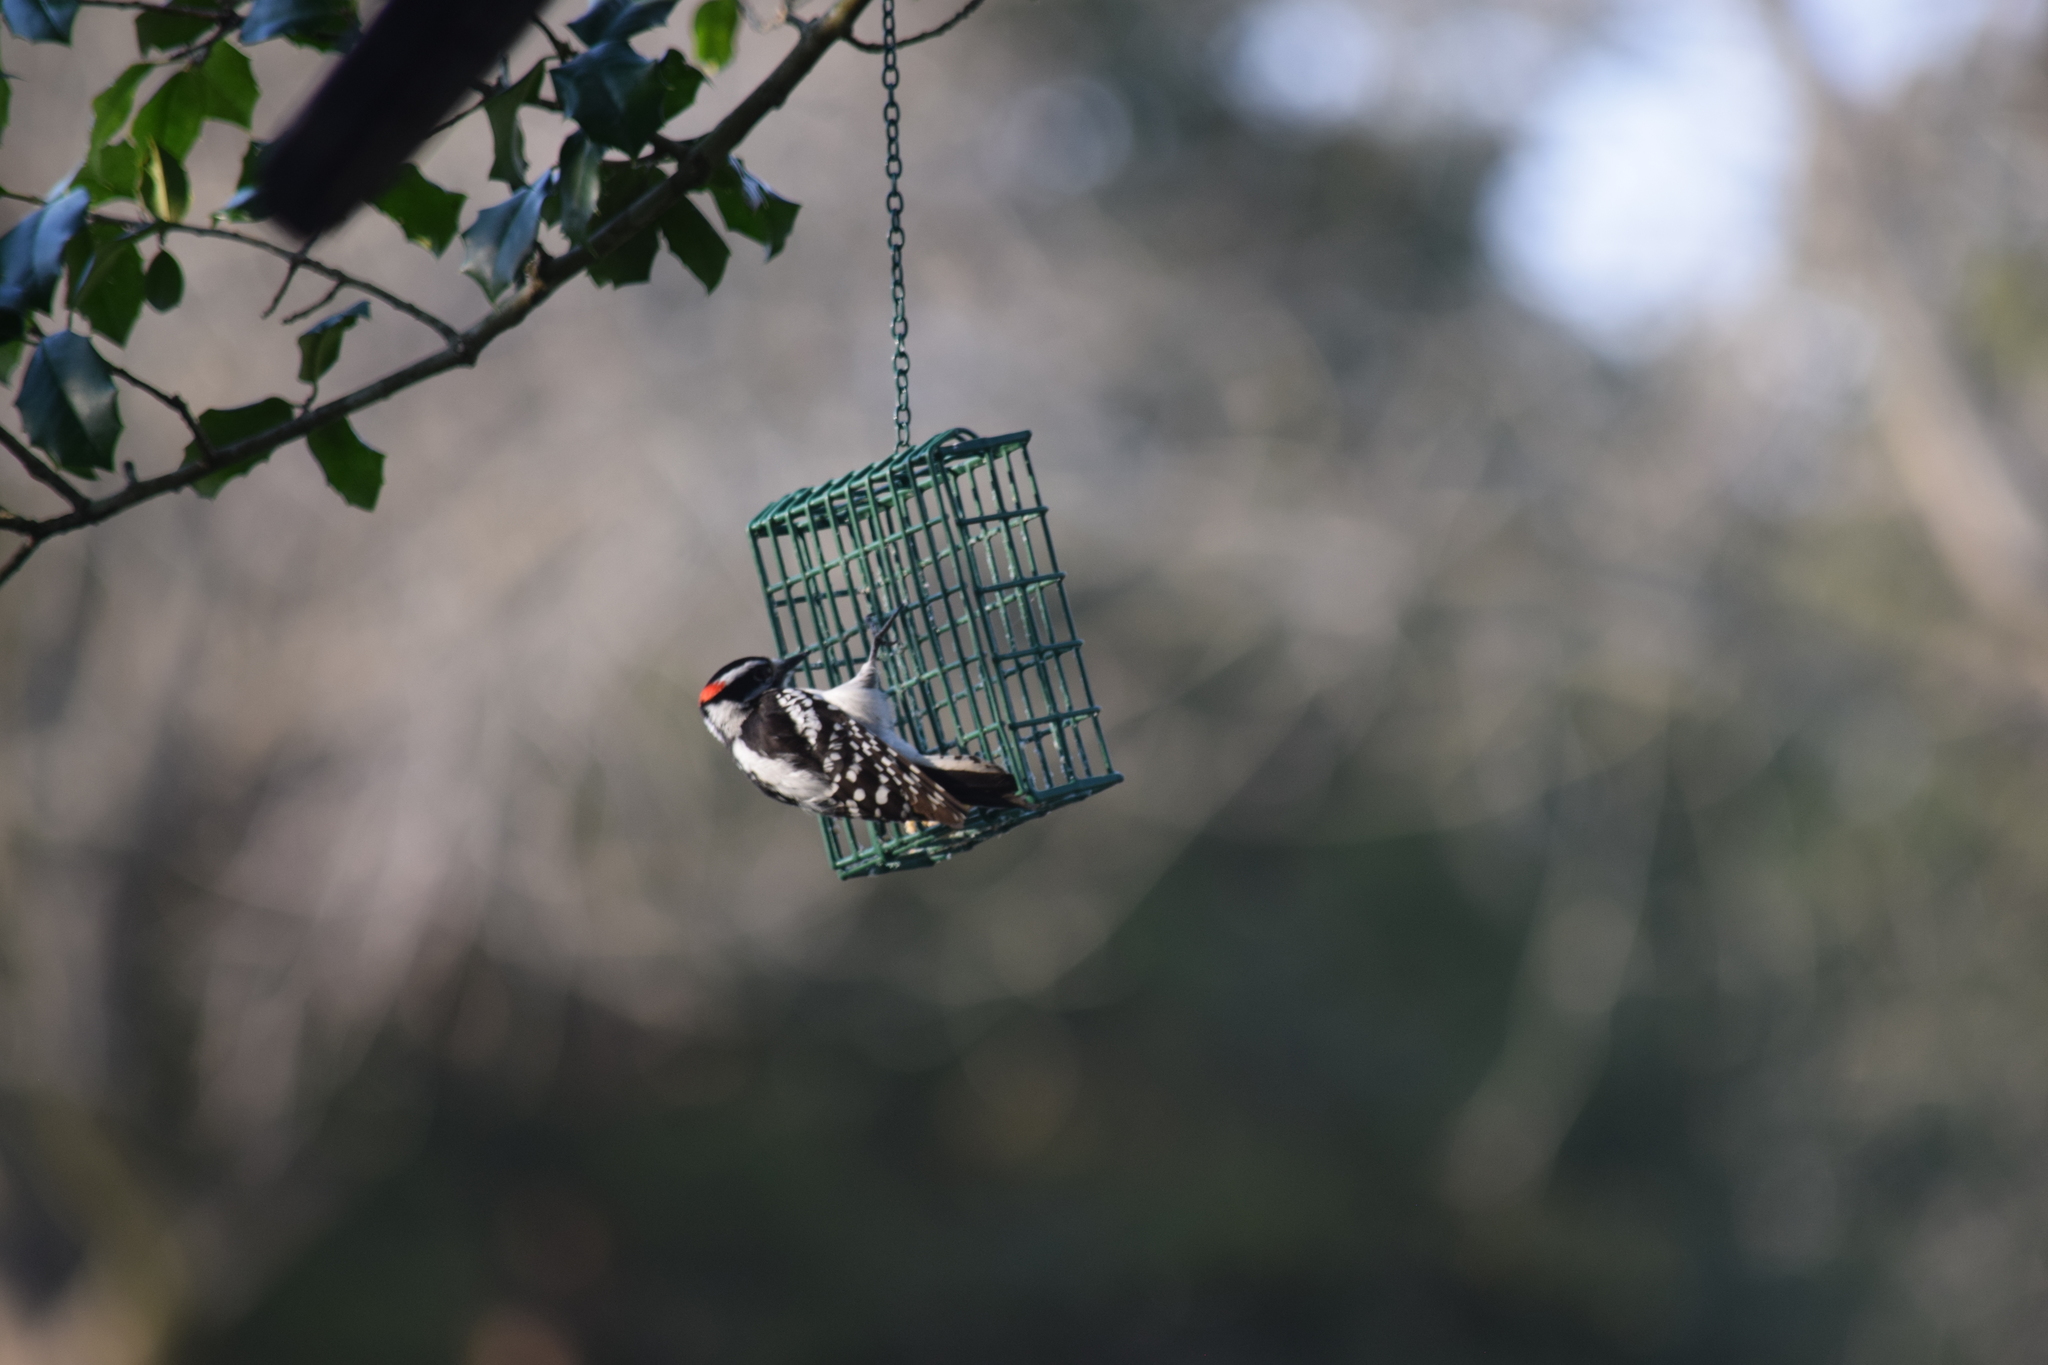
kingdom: Animalia
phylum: Chordata
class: Aves
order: Piciformes
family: Picidae
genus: Dryobates
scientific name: Dryobates pubescens
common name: Downy woodpecker
